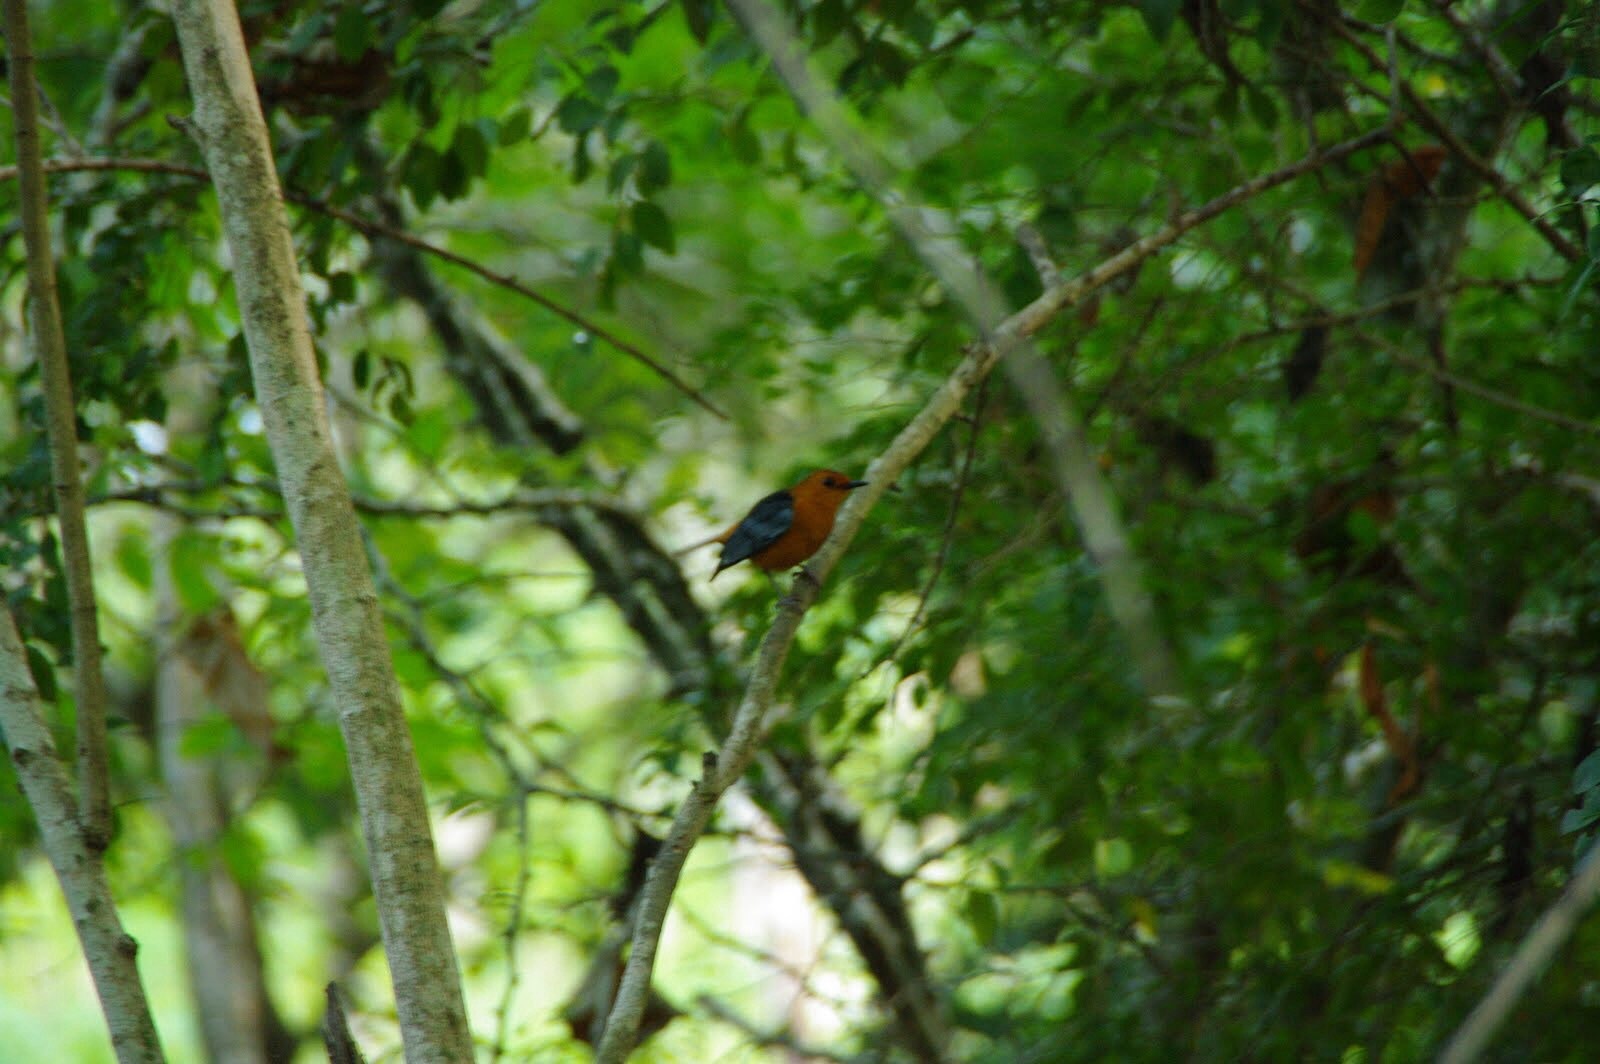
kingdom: Animalia
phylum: Chordata
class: Aves
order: Passeriformes
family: Muscicapidae
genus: Cossypha
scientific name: Cossypha natalensis
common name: Red-capped robin-chat
